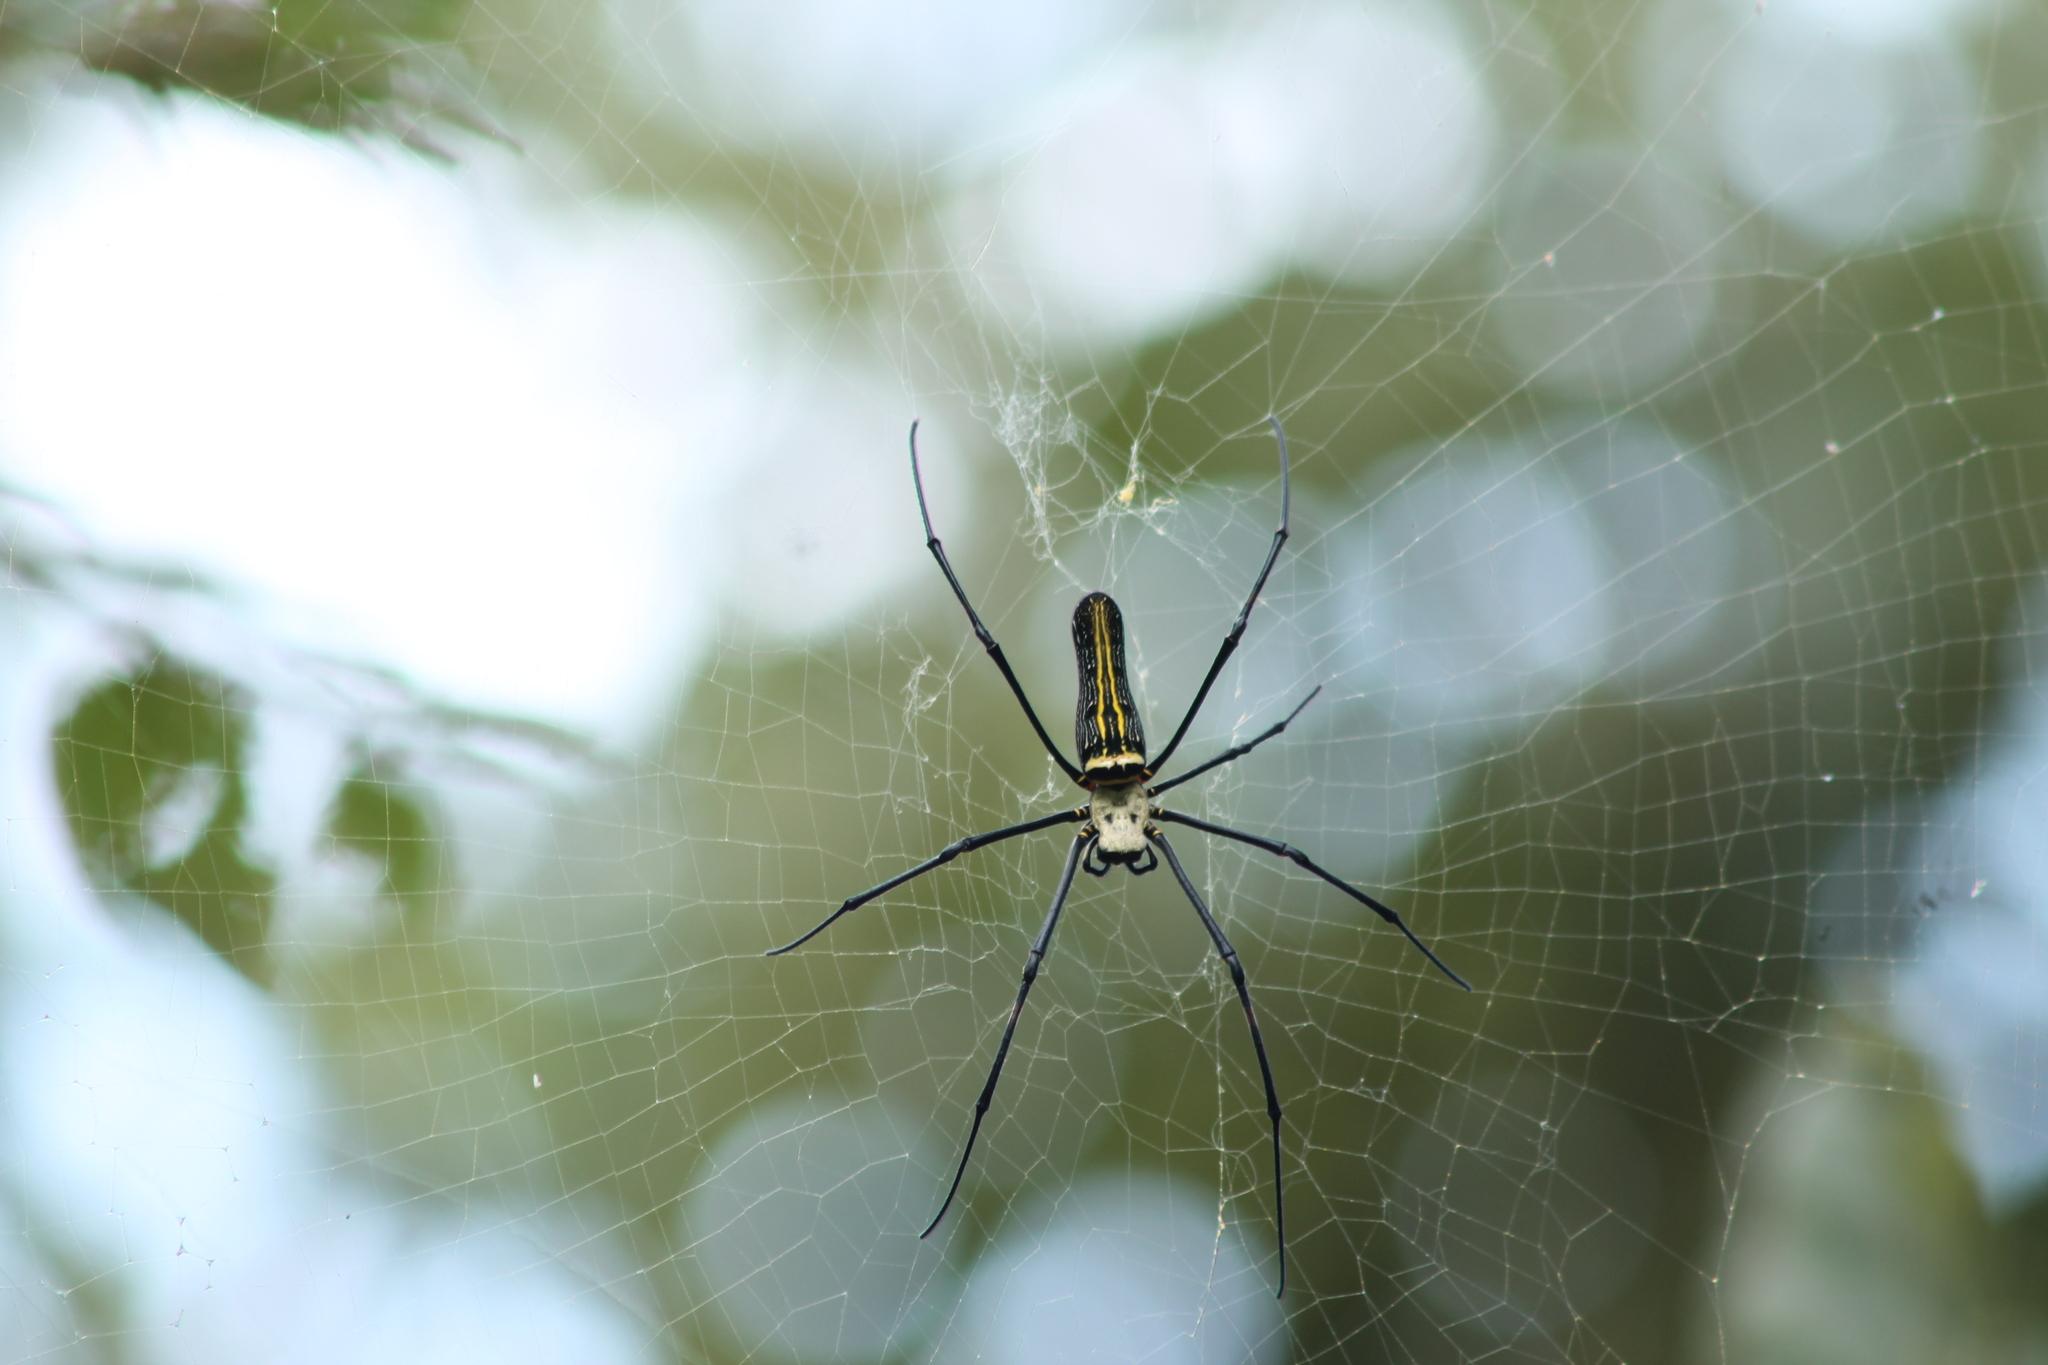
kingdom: Animalia
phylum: Arthropoda
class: Arachnida
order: Araneae
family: Araneidae
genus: Nephila
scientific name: Nephila pilipes
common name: Giant golden orb weaver
